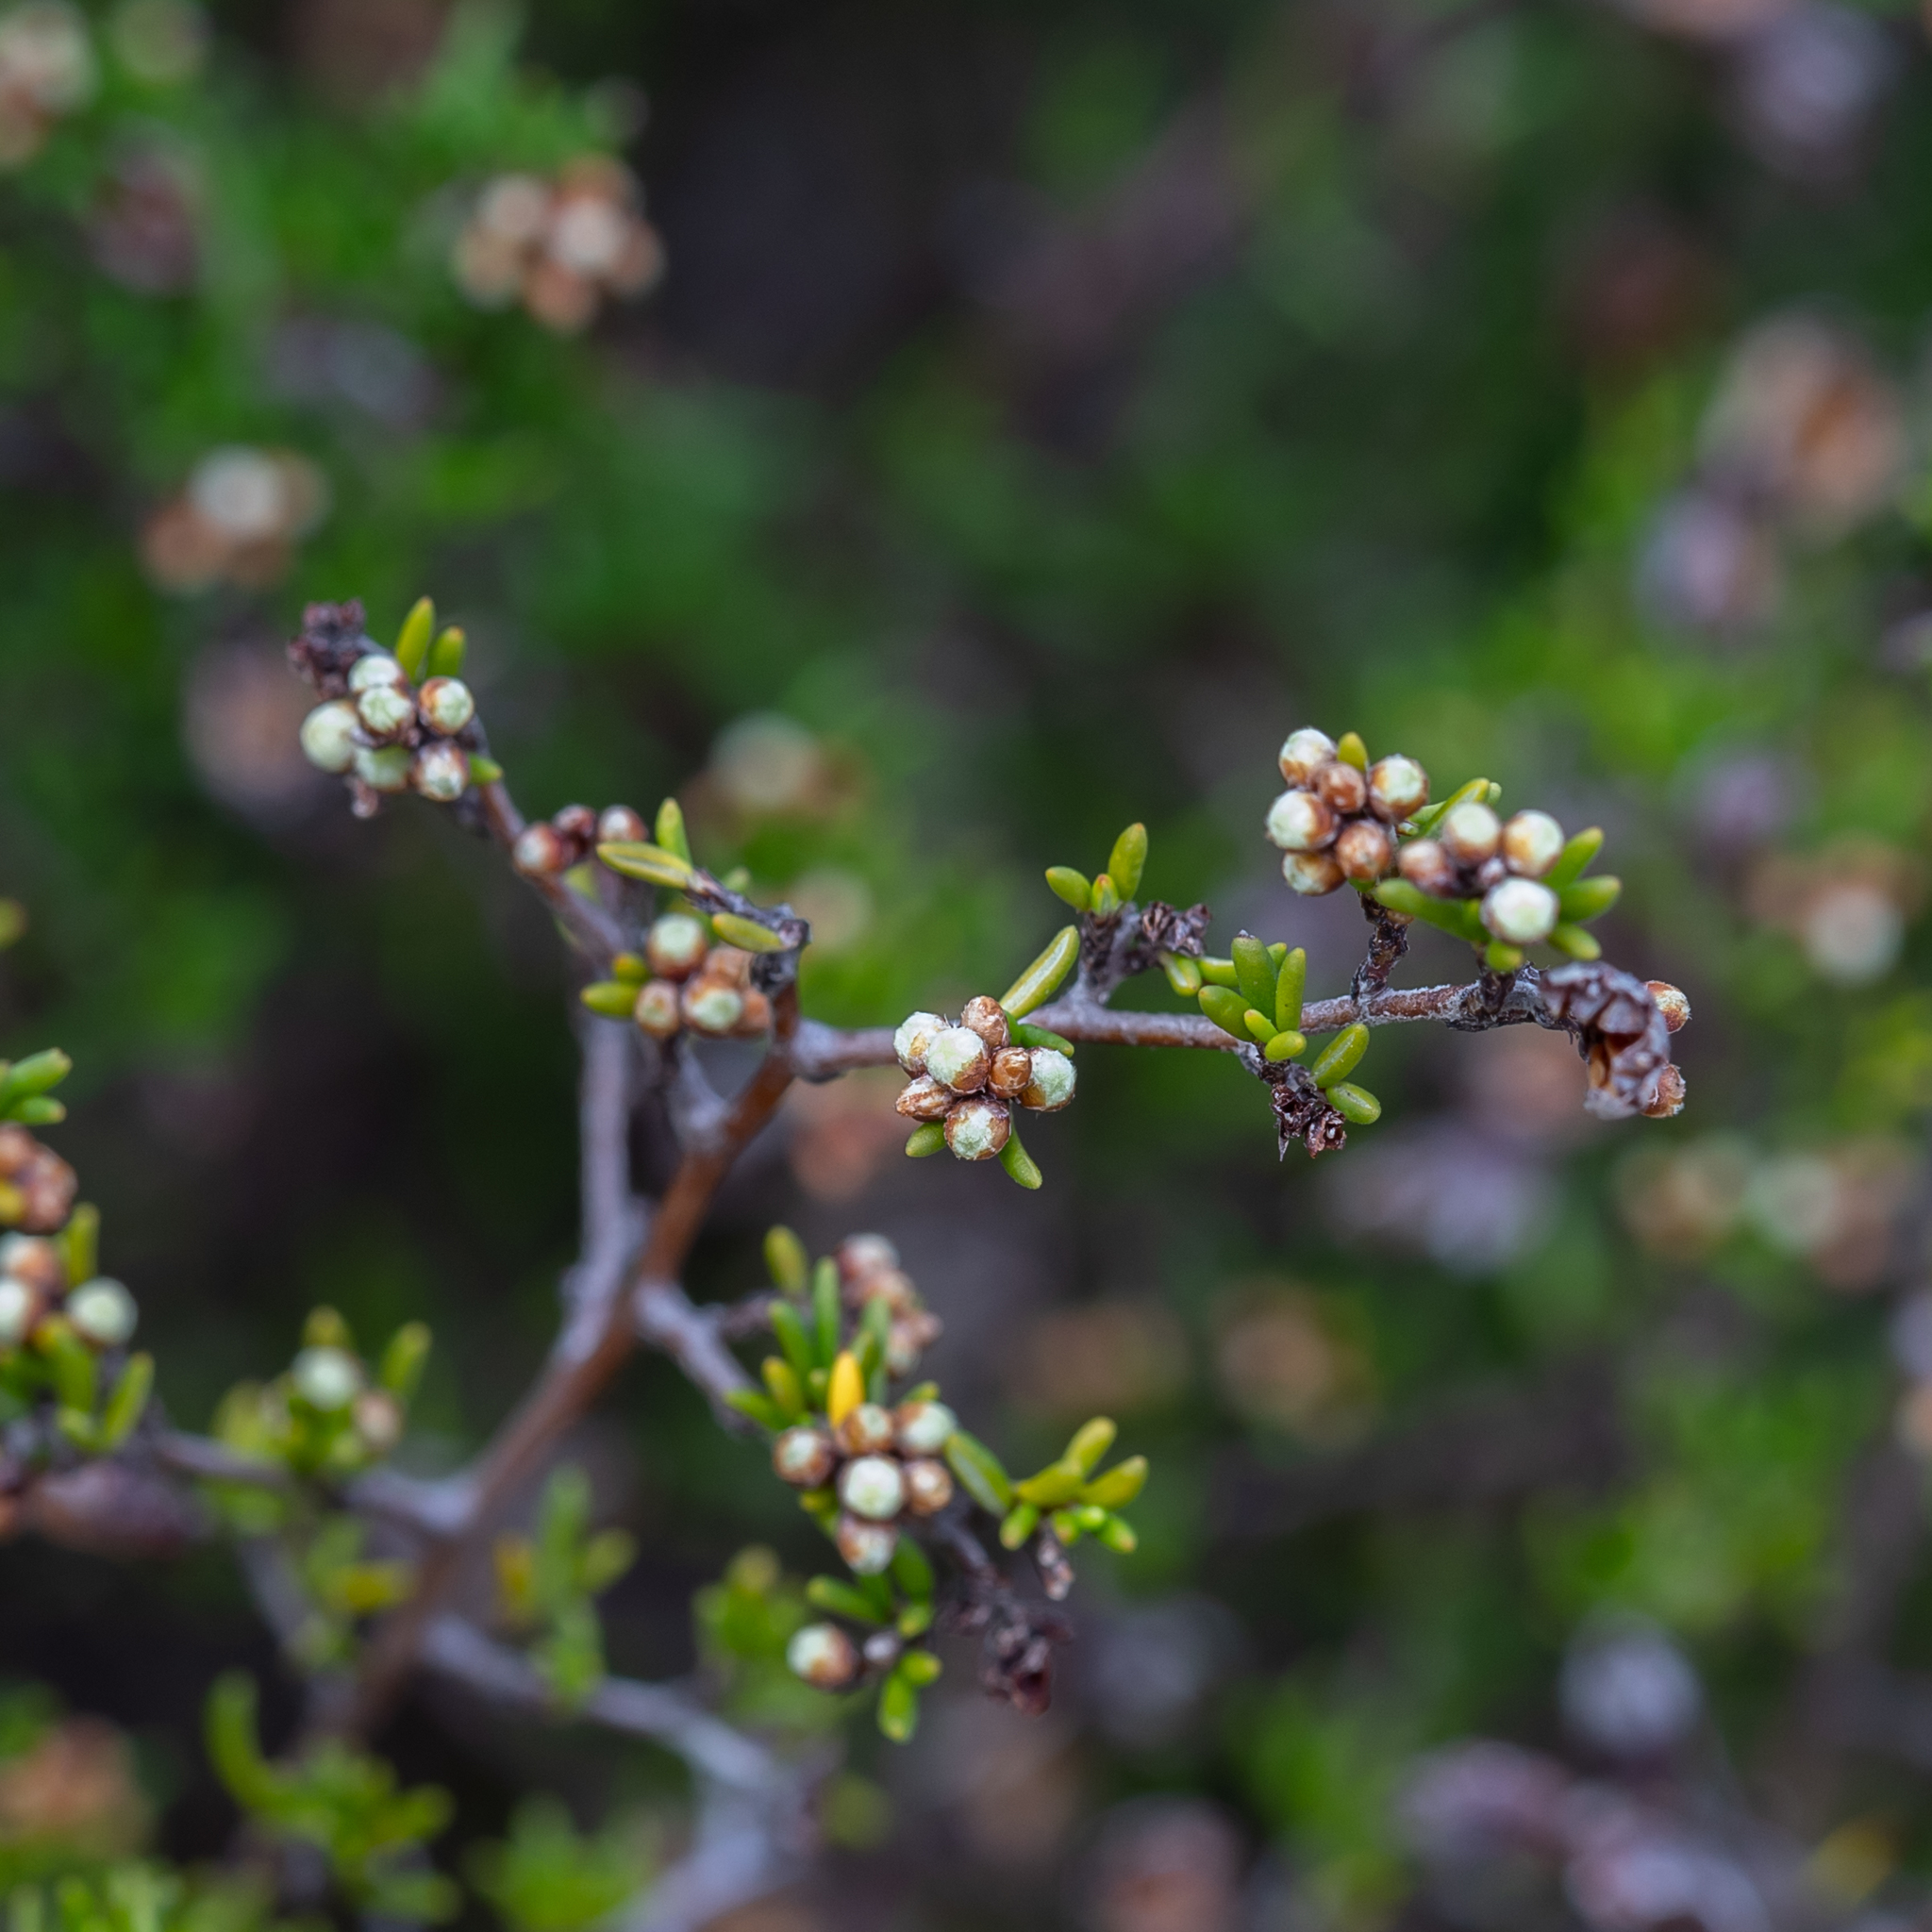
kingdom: Plantae
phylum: Tracheophyta
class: Magnoliopsida
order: Rosales
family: Rhamnaceae
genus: Cryptandra
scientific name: Cryptandra tomentosa
